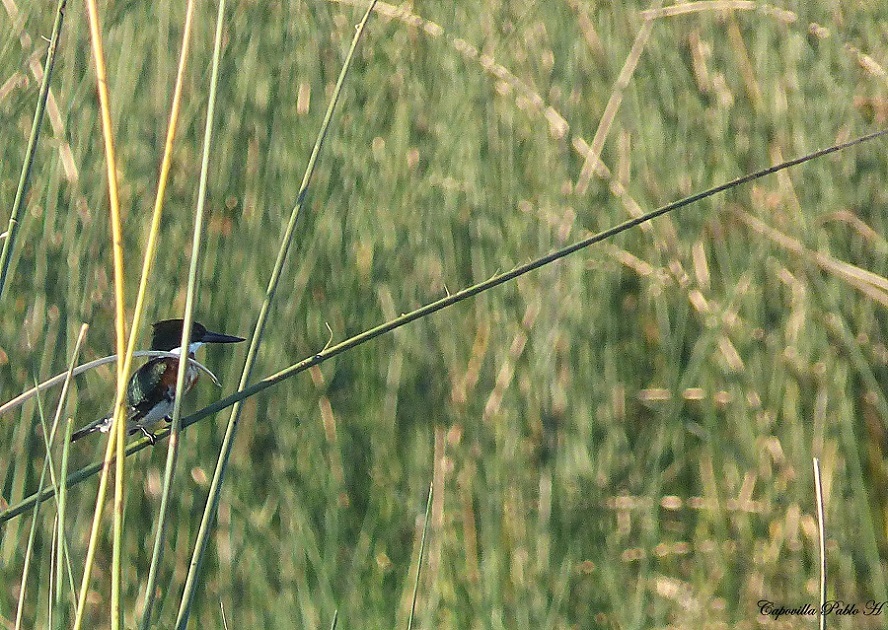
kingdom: Animalia
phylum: Chordata
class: Aves
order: Coraciiformes
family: Alcedinidae
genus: Chloroceryle
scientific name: Chloroceryle americana
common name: Green kingfisher
